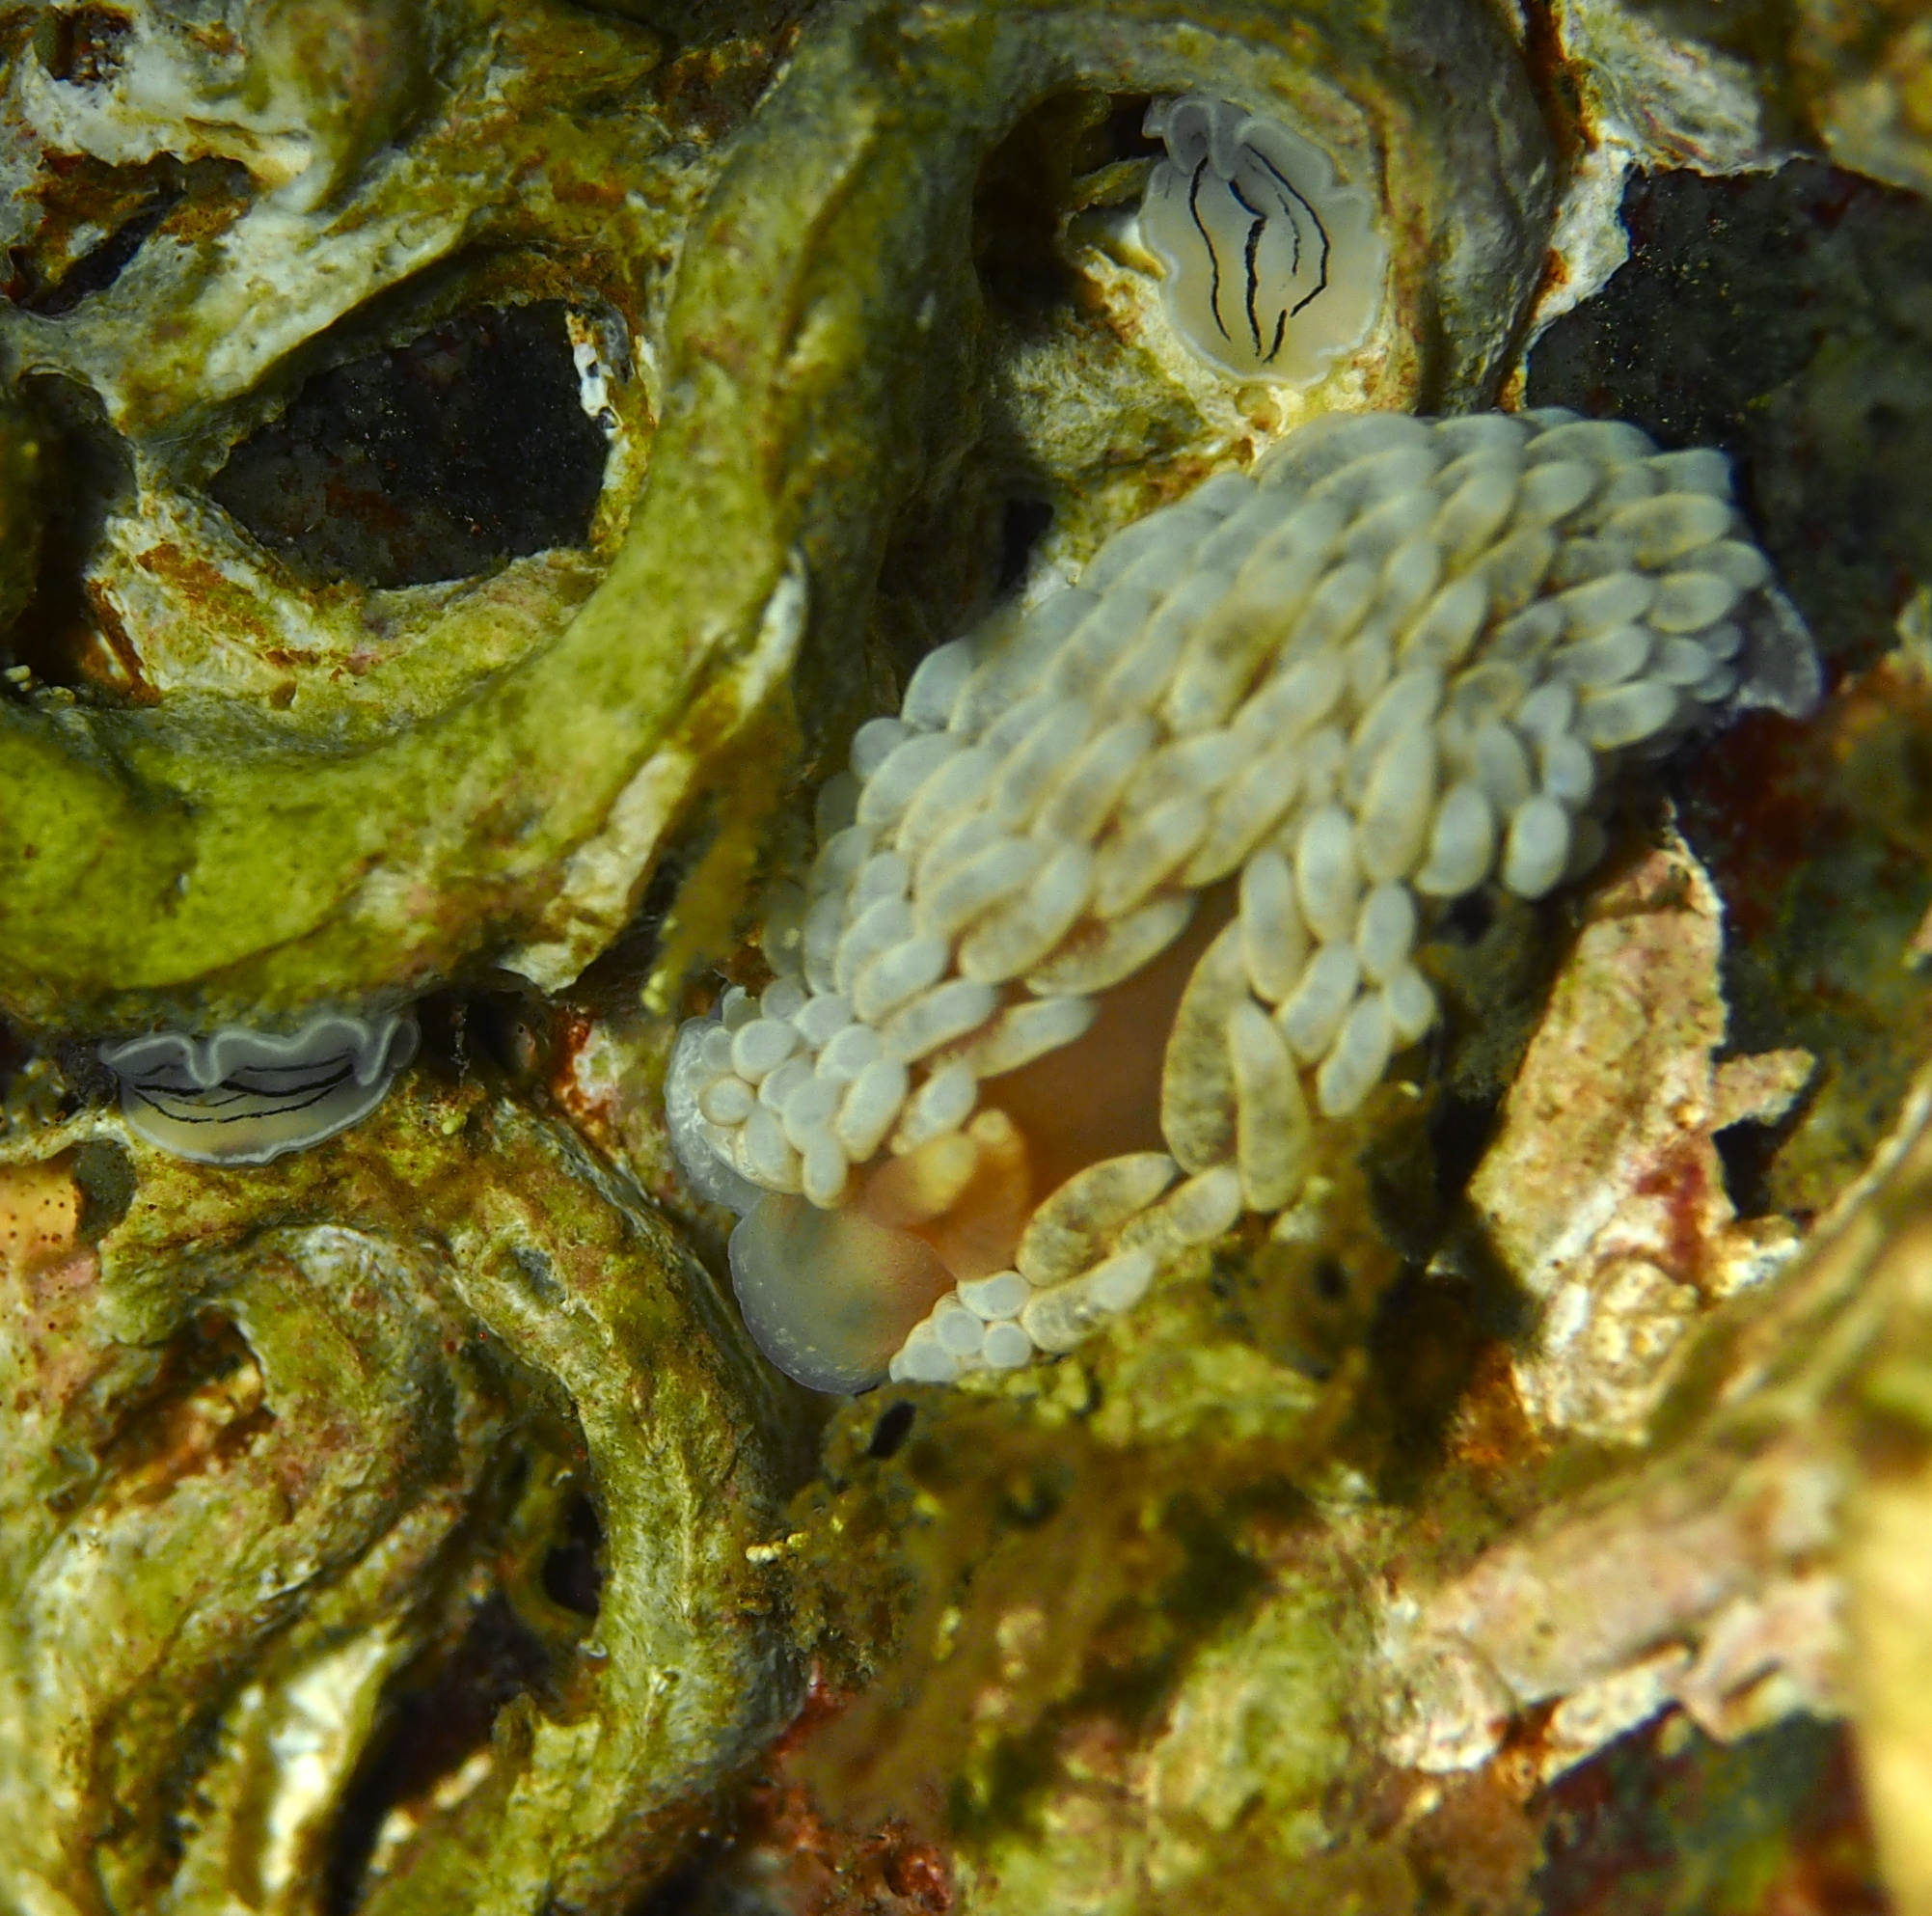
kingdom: Animalia
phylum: Mollusca
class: Gastropoda
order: Nudibranchia
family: Aeolidiidae
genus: Aeolidiella
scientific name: Aeolidiella glauca
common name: Orange-brown aeolid
